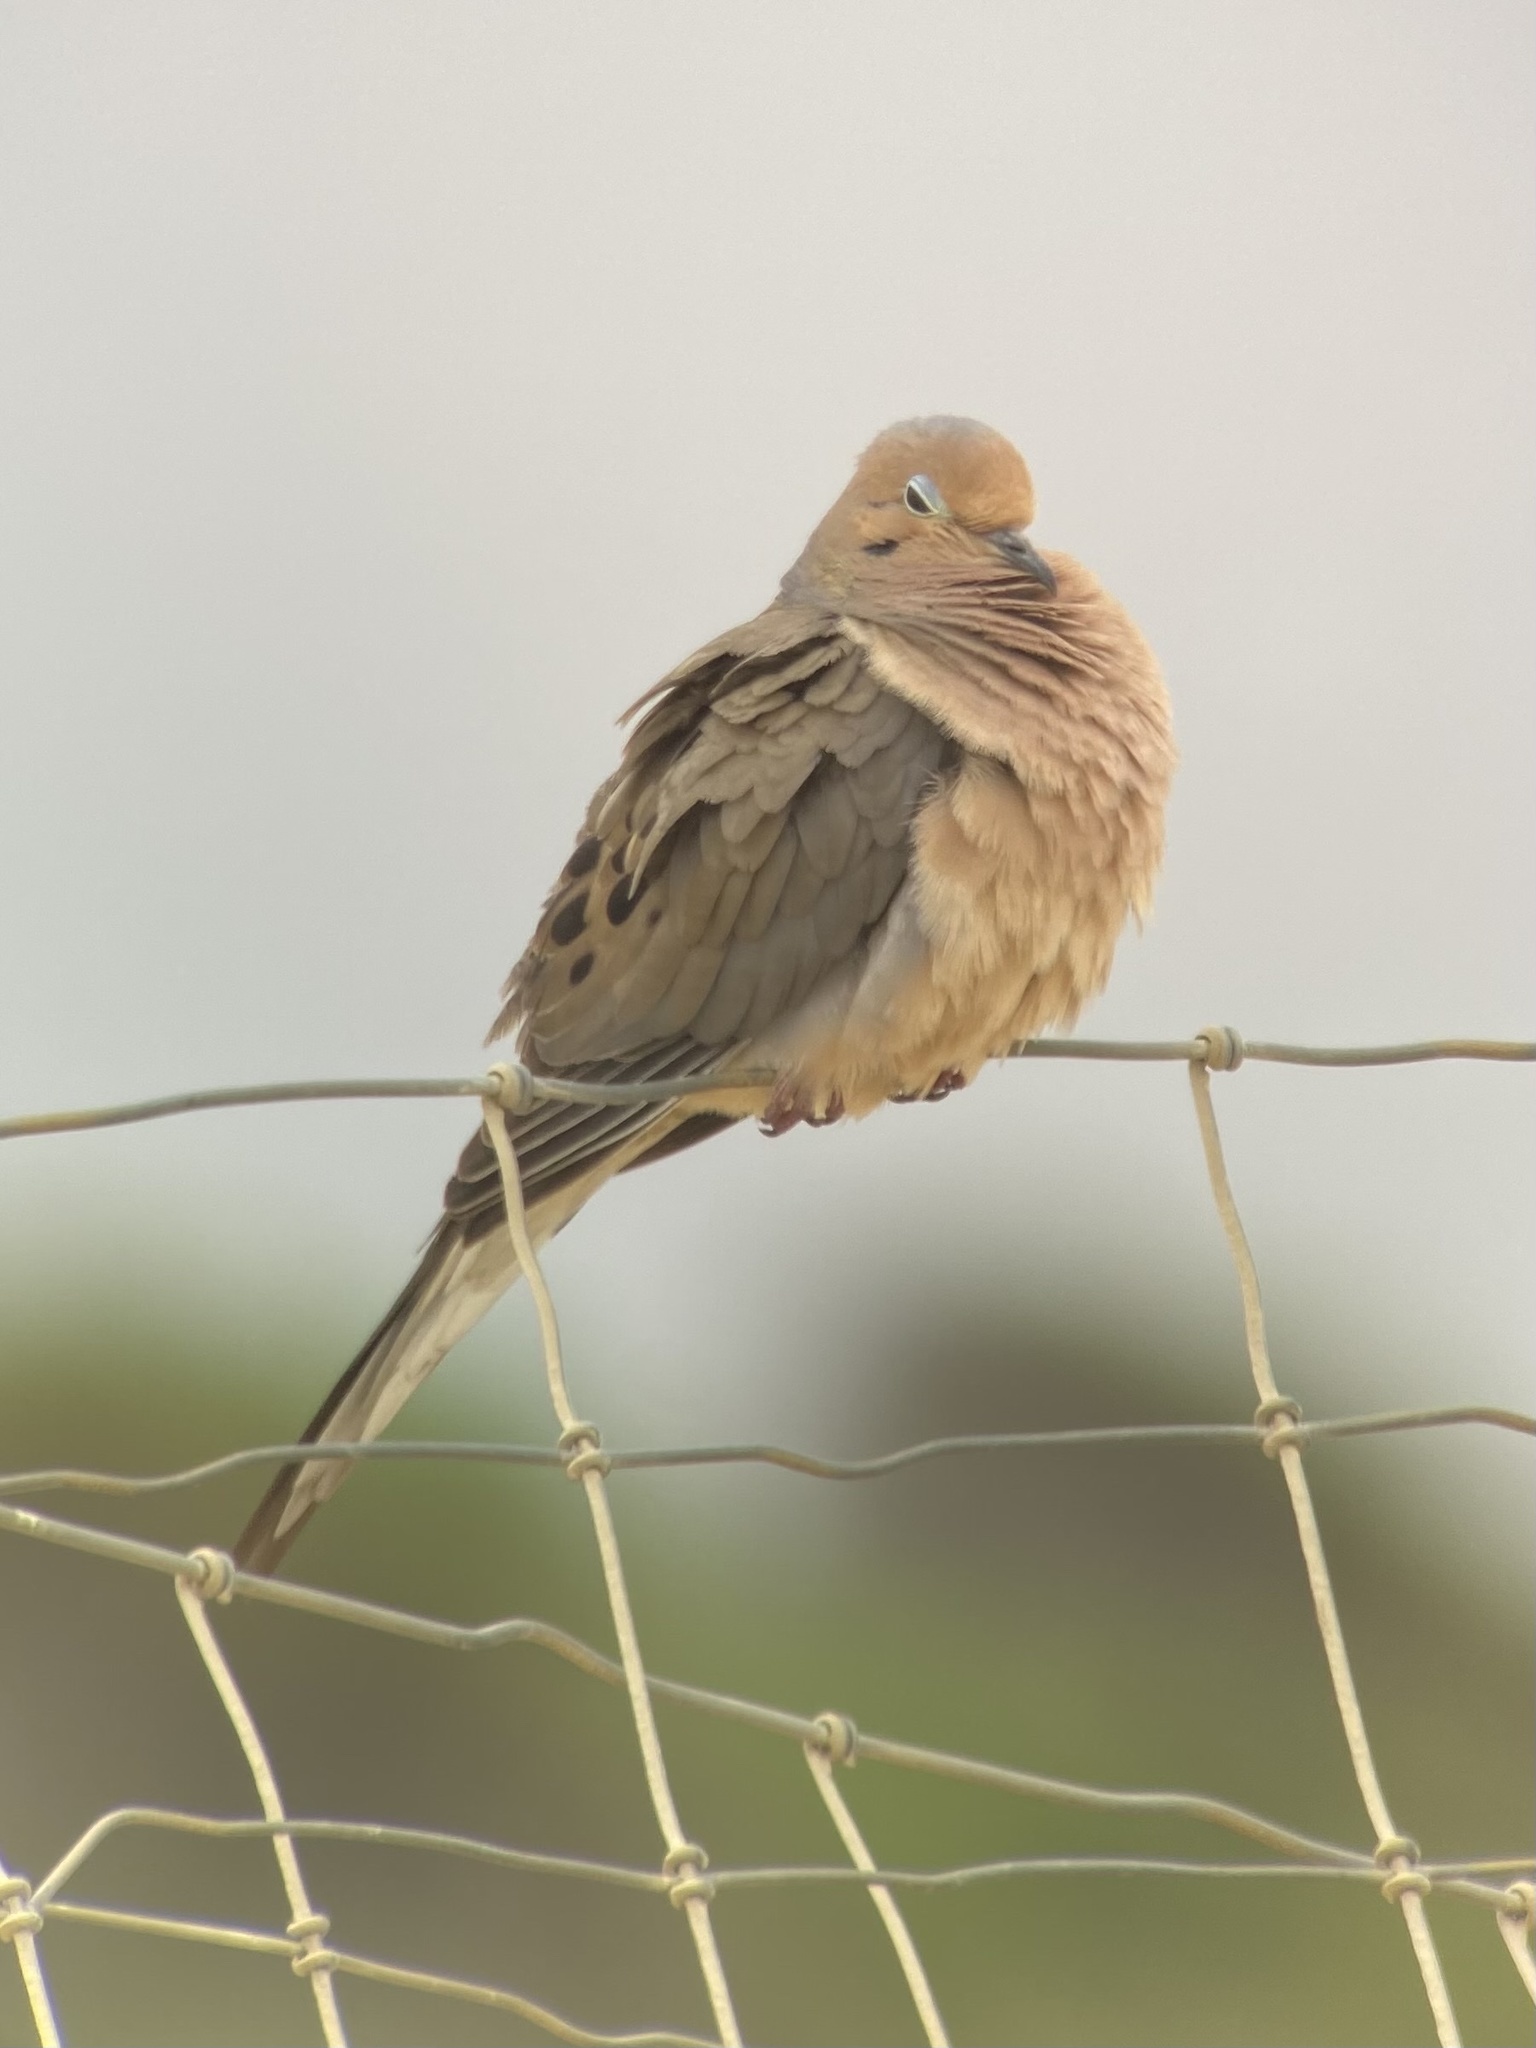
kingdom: Animalia
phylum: Chordata
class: Aves
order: Columbiformes
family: Columbidae
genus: Zenaida
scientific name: Zenaida macroura
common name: Mourning dove
